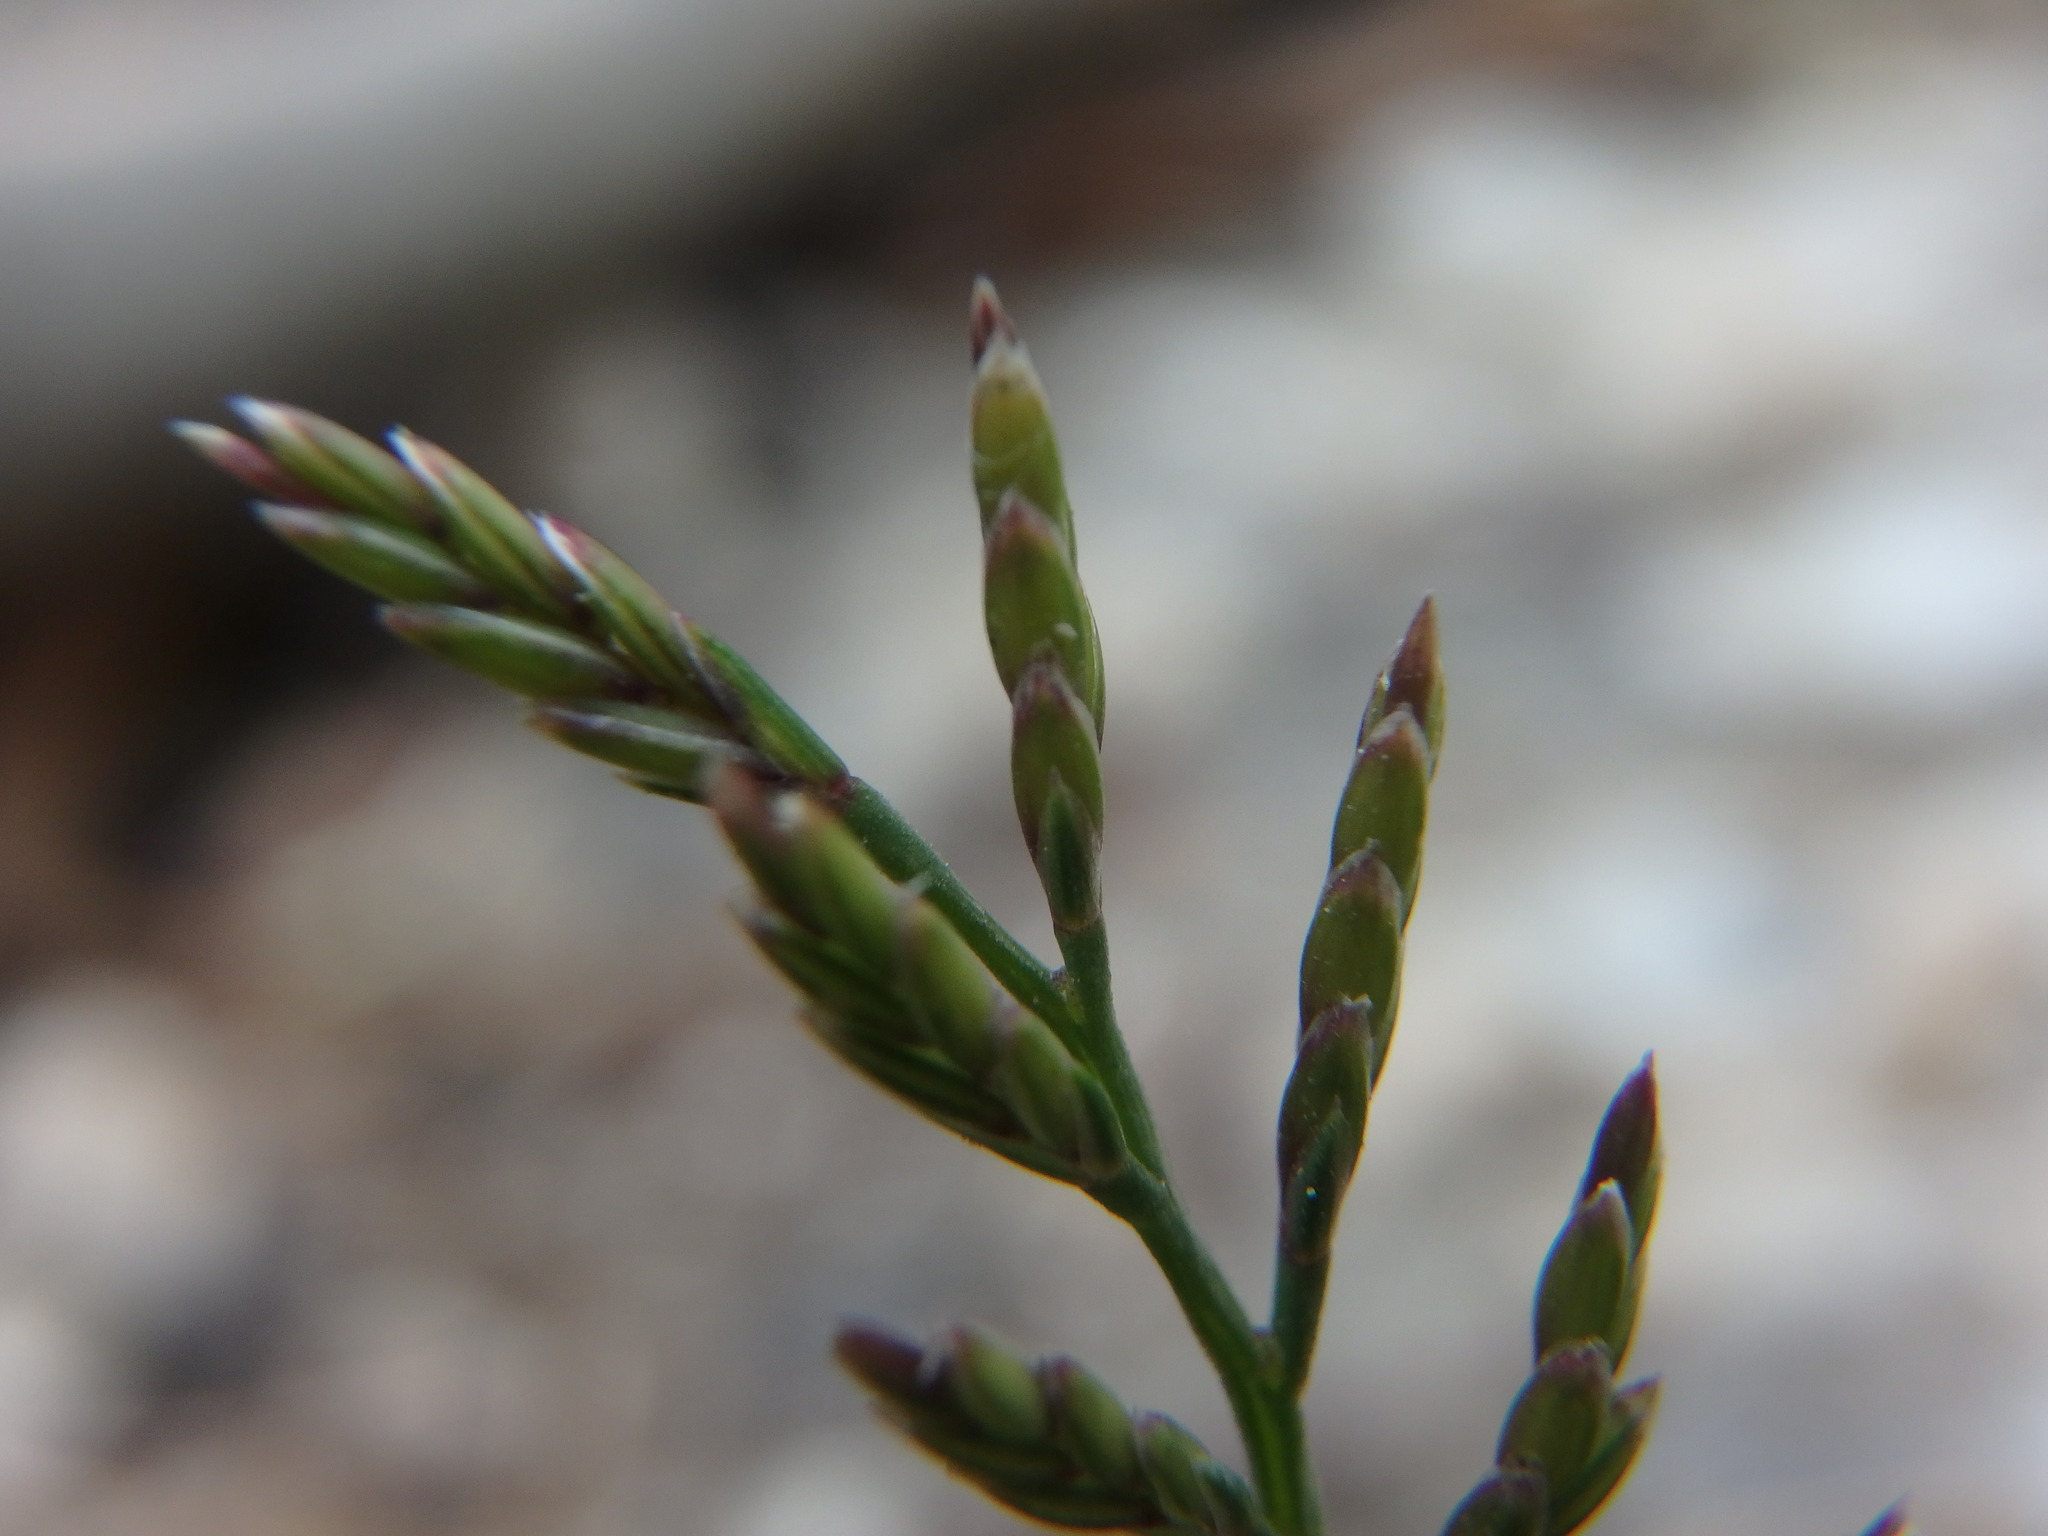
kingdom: Plantae
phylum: Tracheophyta
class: Liliopsida
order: Poales
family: Poaceae
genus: Catapodium
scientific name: Catapodium rigidum
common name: Fern-grass
